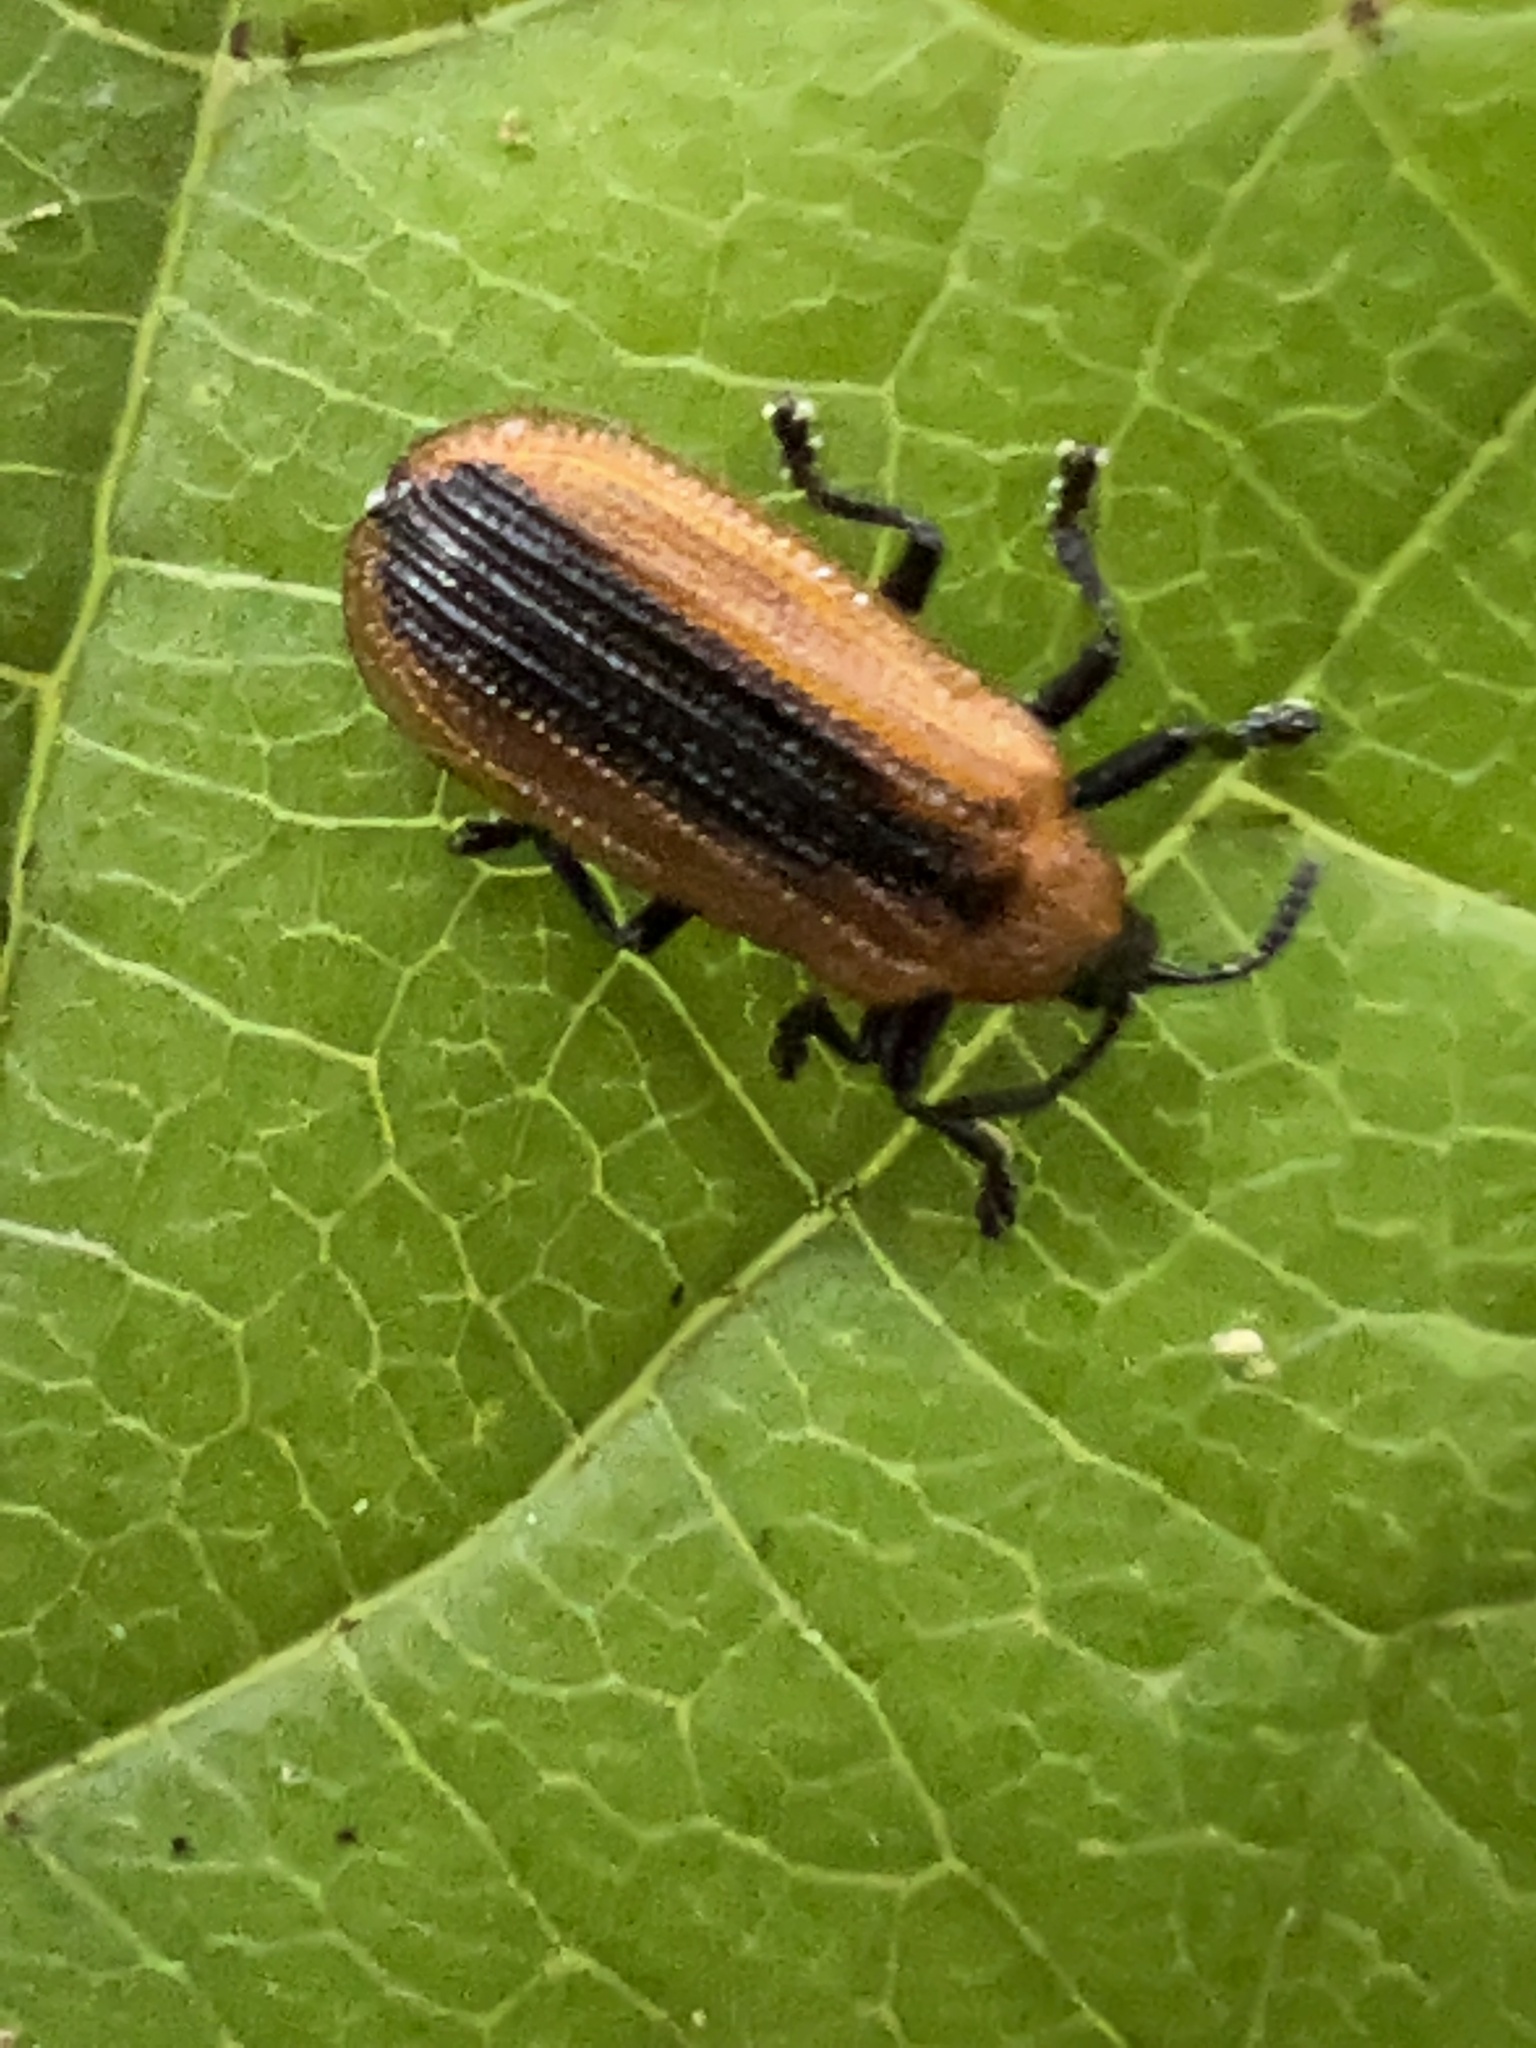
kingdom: Animalia
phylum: Arthropoda
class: Insecta
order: Coleoptera
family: Chrysomelidae
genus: Odontota
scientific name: Odontota dorsalis
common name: Locust leaf-miner beetle
